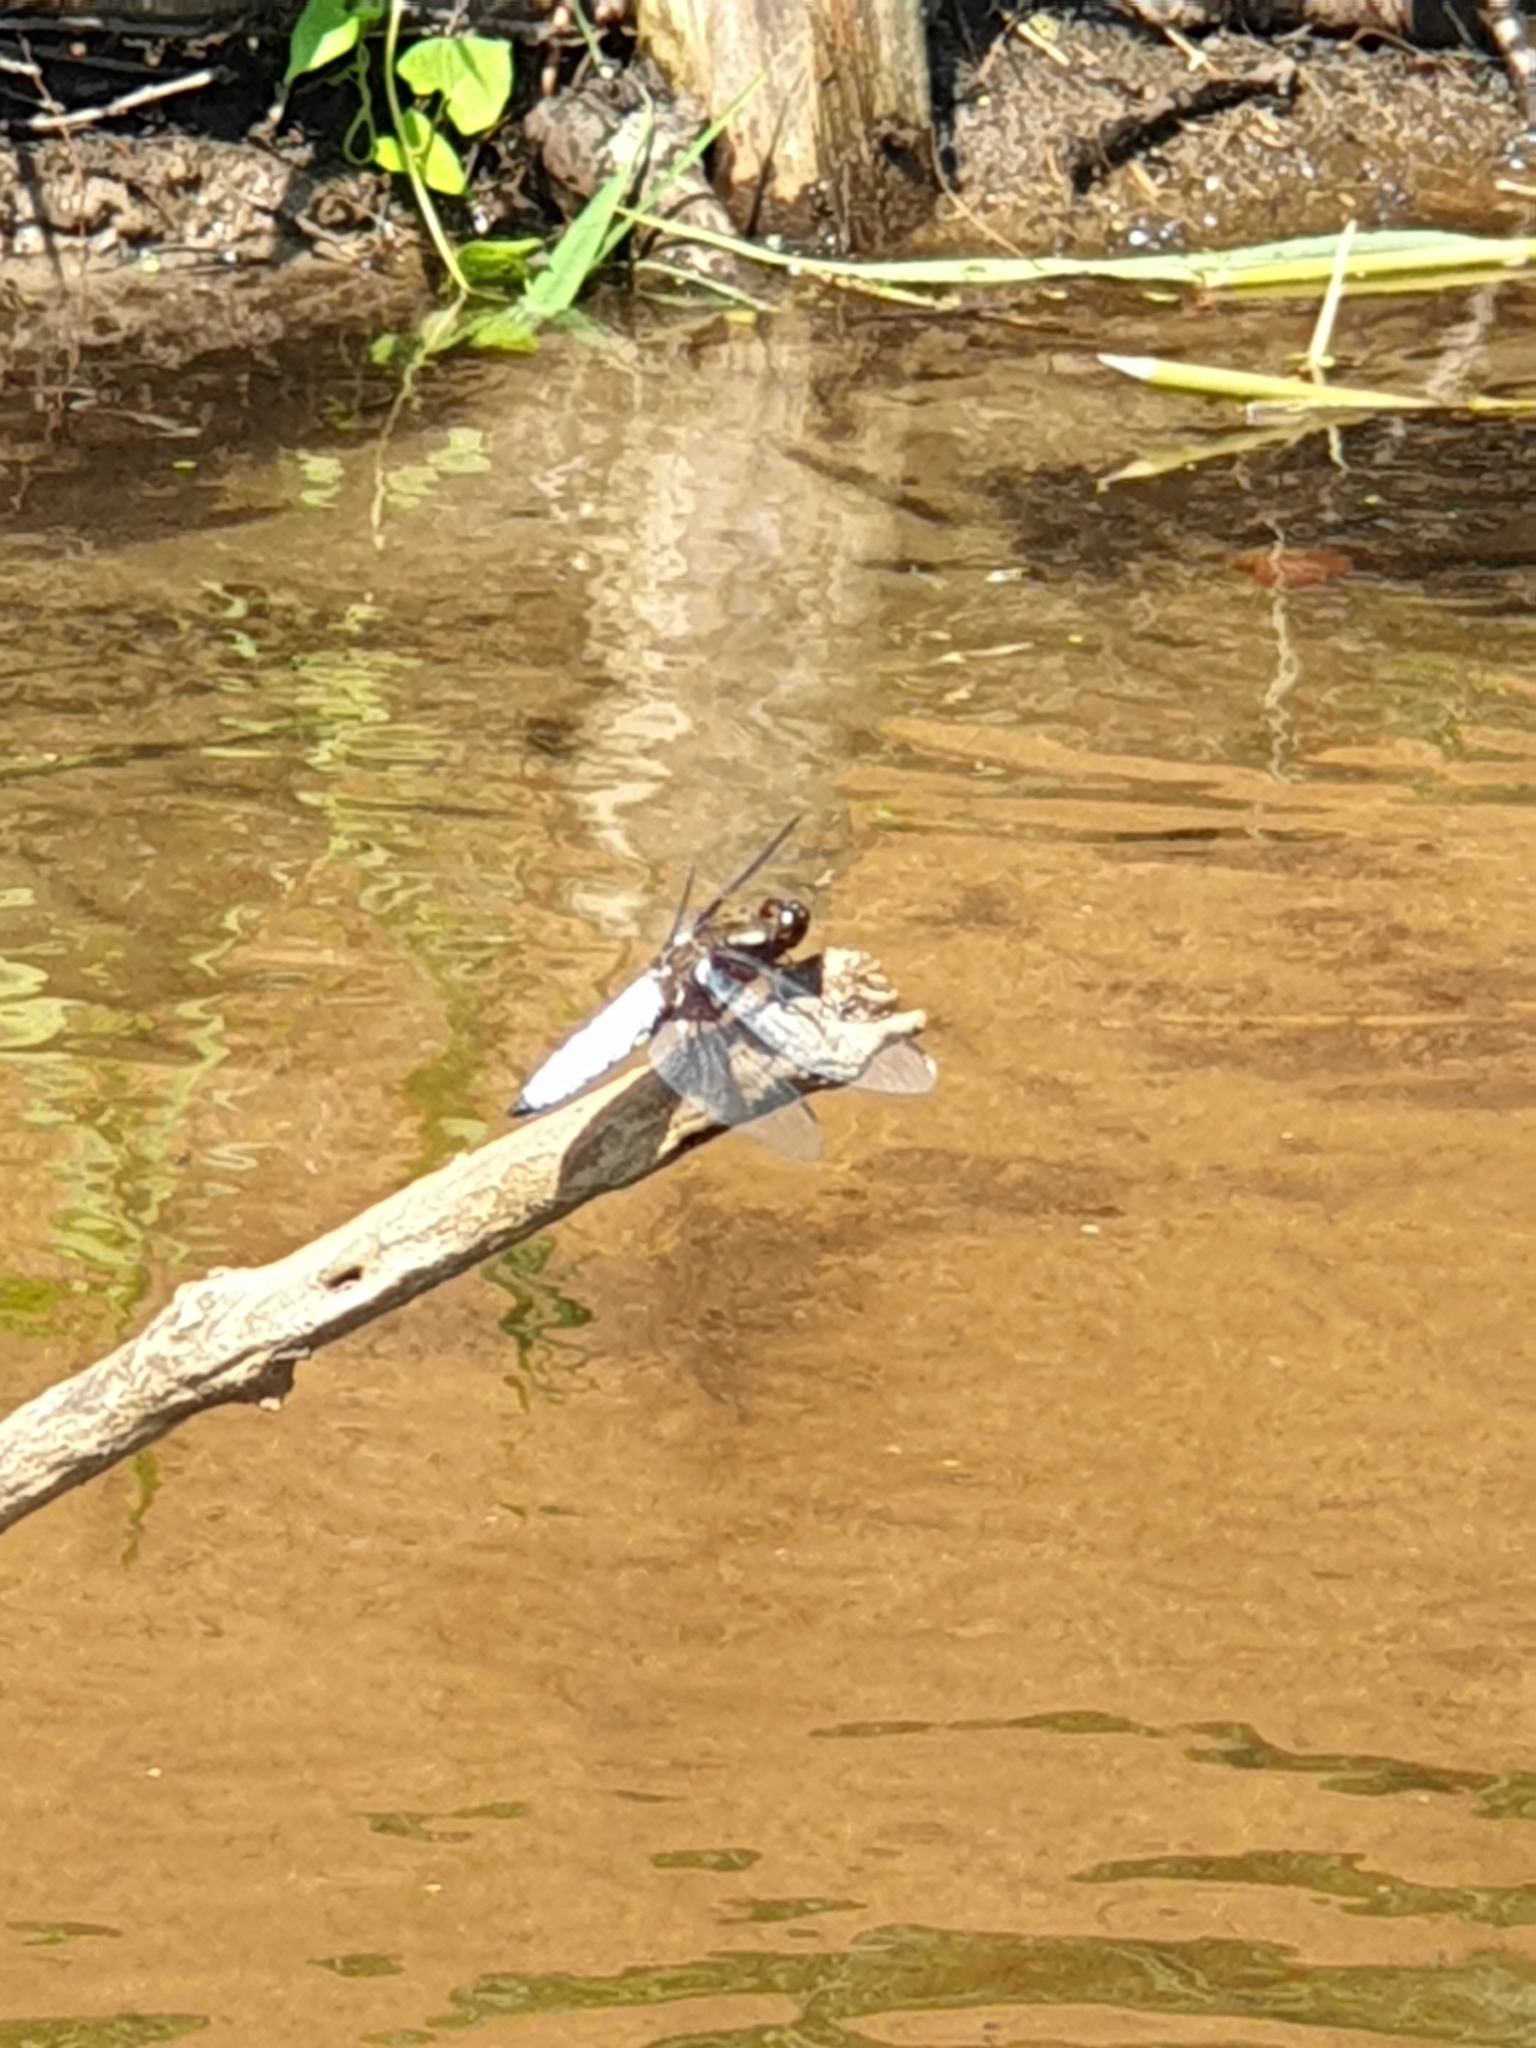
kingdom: Animalia
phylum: Arthropoda
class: Insecta
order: Odonata
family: Libellulidae
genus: Libellula
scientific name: Libellula depressa
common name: Broad-bodied chaser
